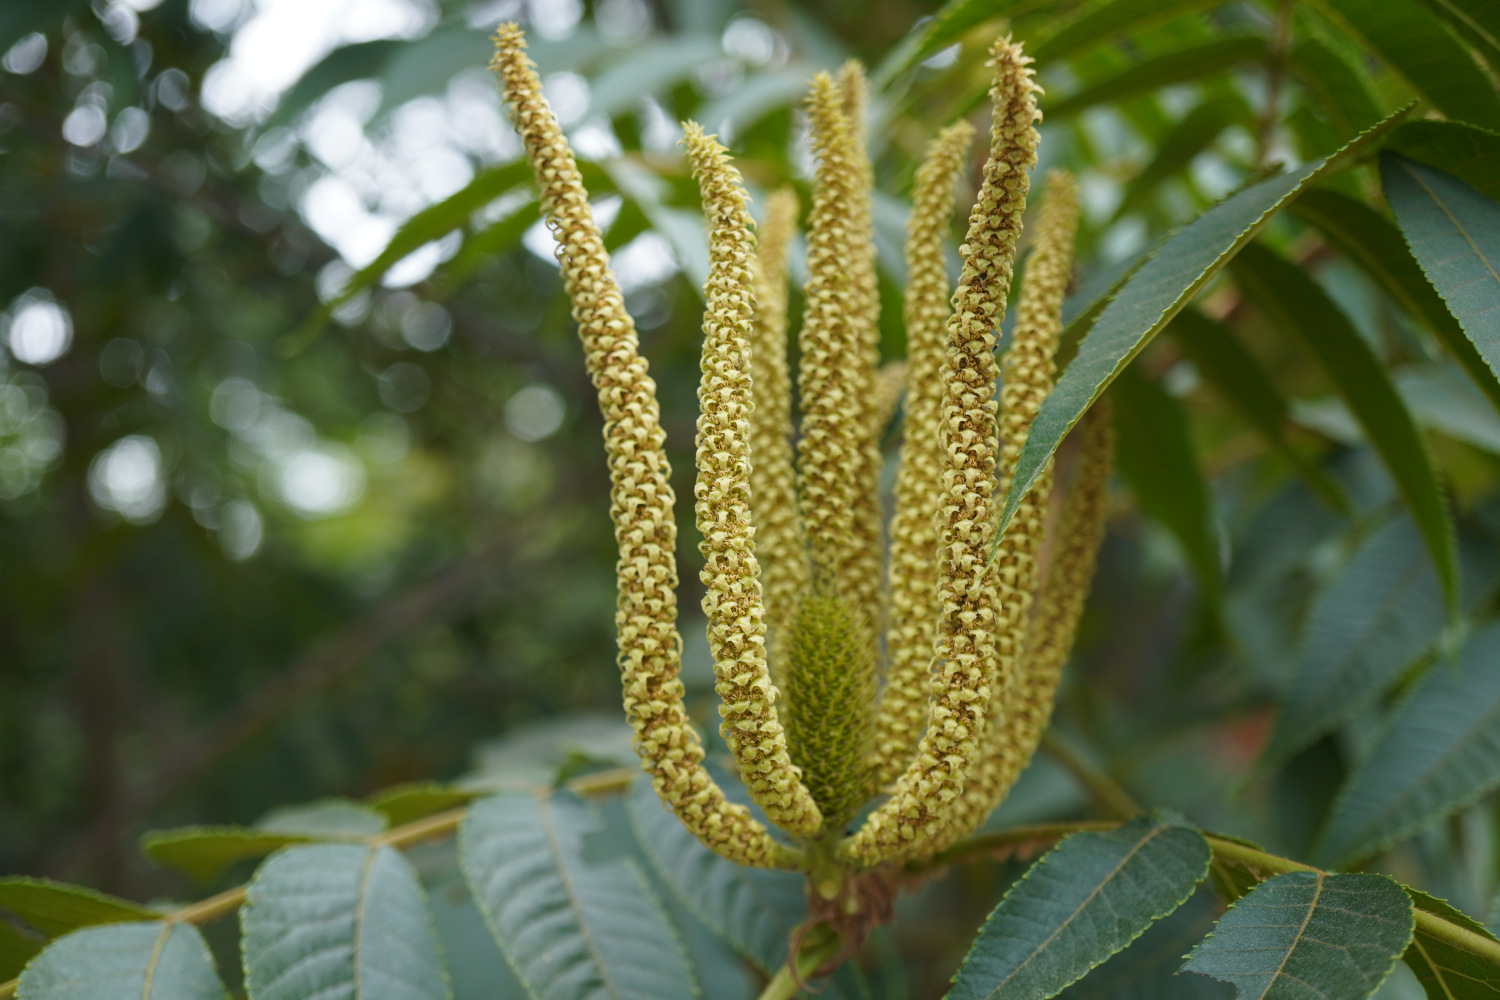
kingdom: Plantae
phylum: Tracheophyta
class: Magnoliopsida
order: Fagales
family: Juglandaceae
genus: Platycarya
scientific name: Platycarya strobilacea
